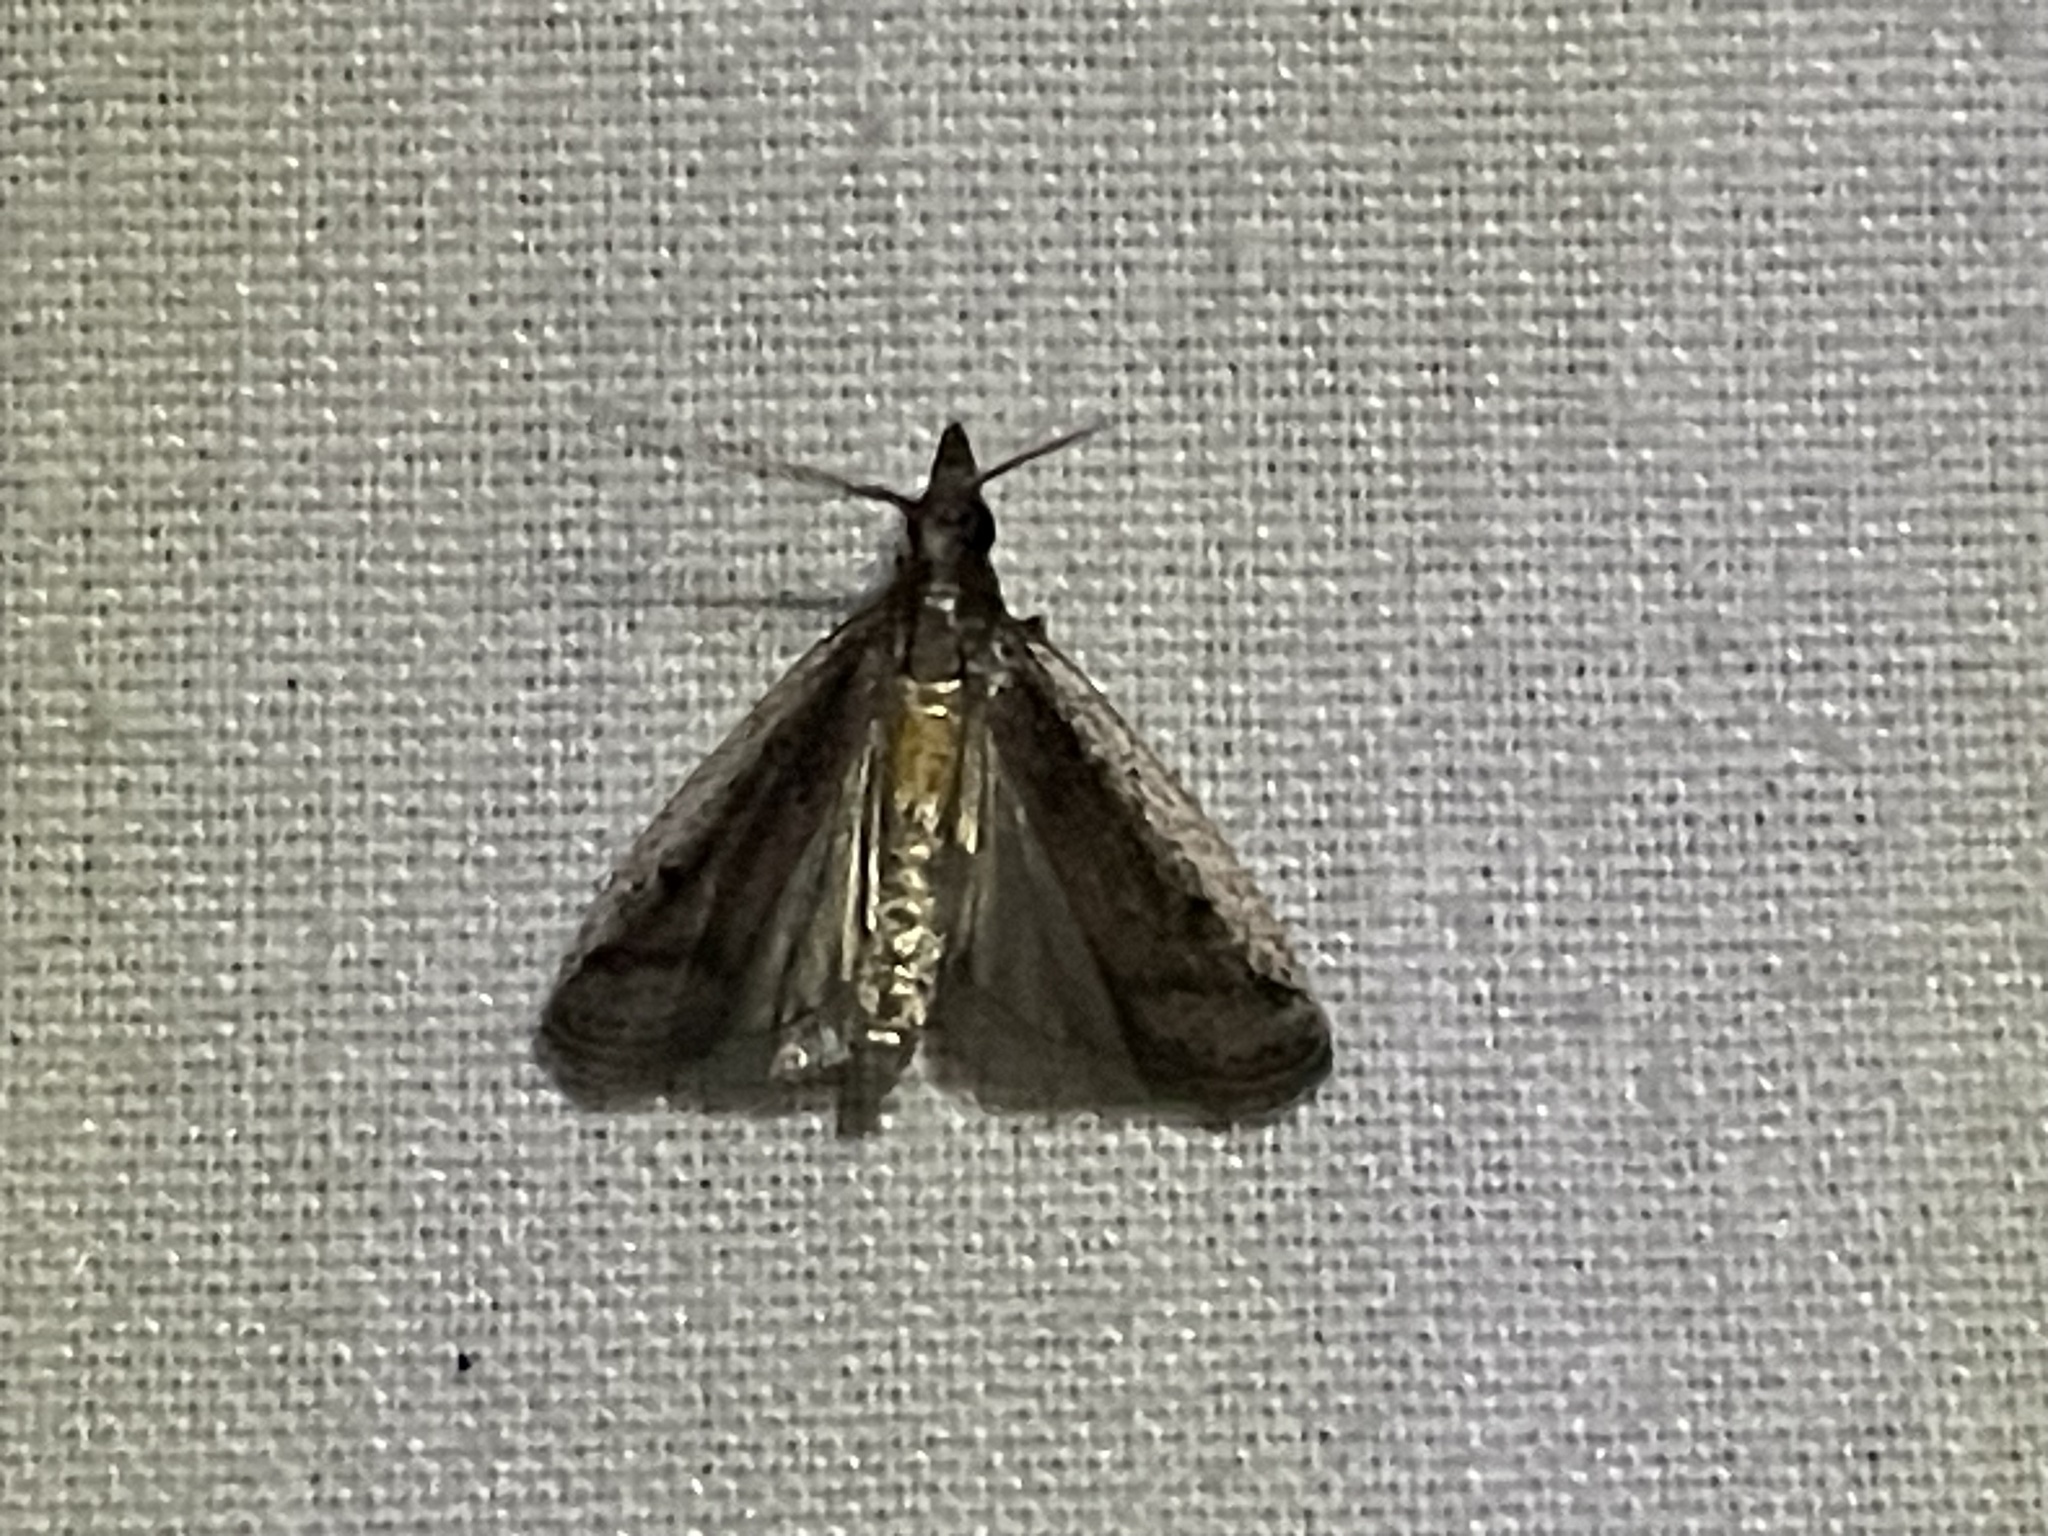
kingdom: Animalia
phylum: Arthropoda
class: Insecta
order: Lepidoptera
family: Pyralidae
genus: Atascosa
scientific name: Atascosa glareosella
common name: Rosy atascosa moth
